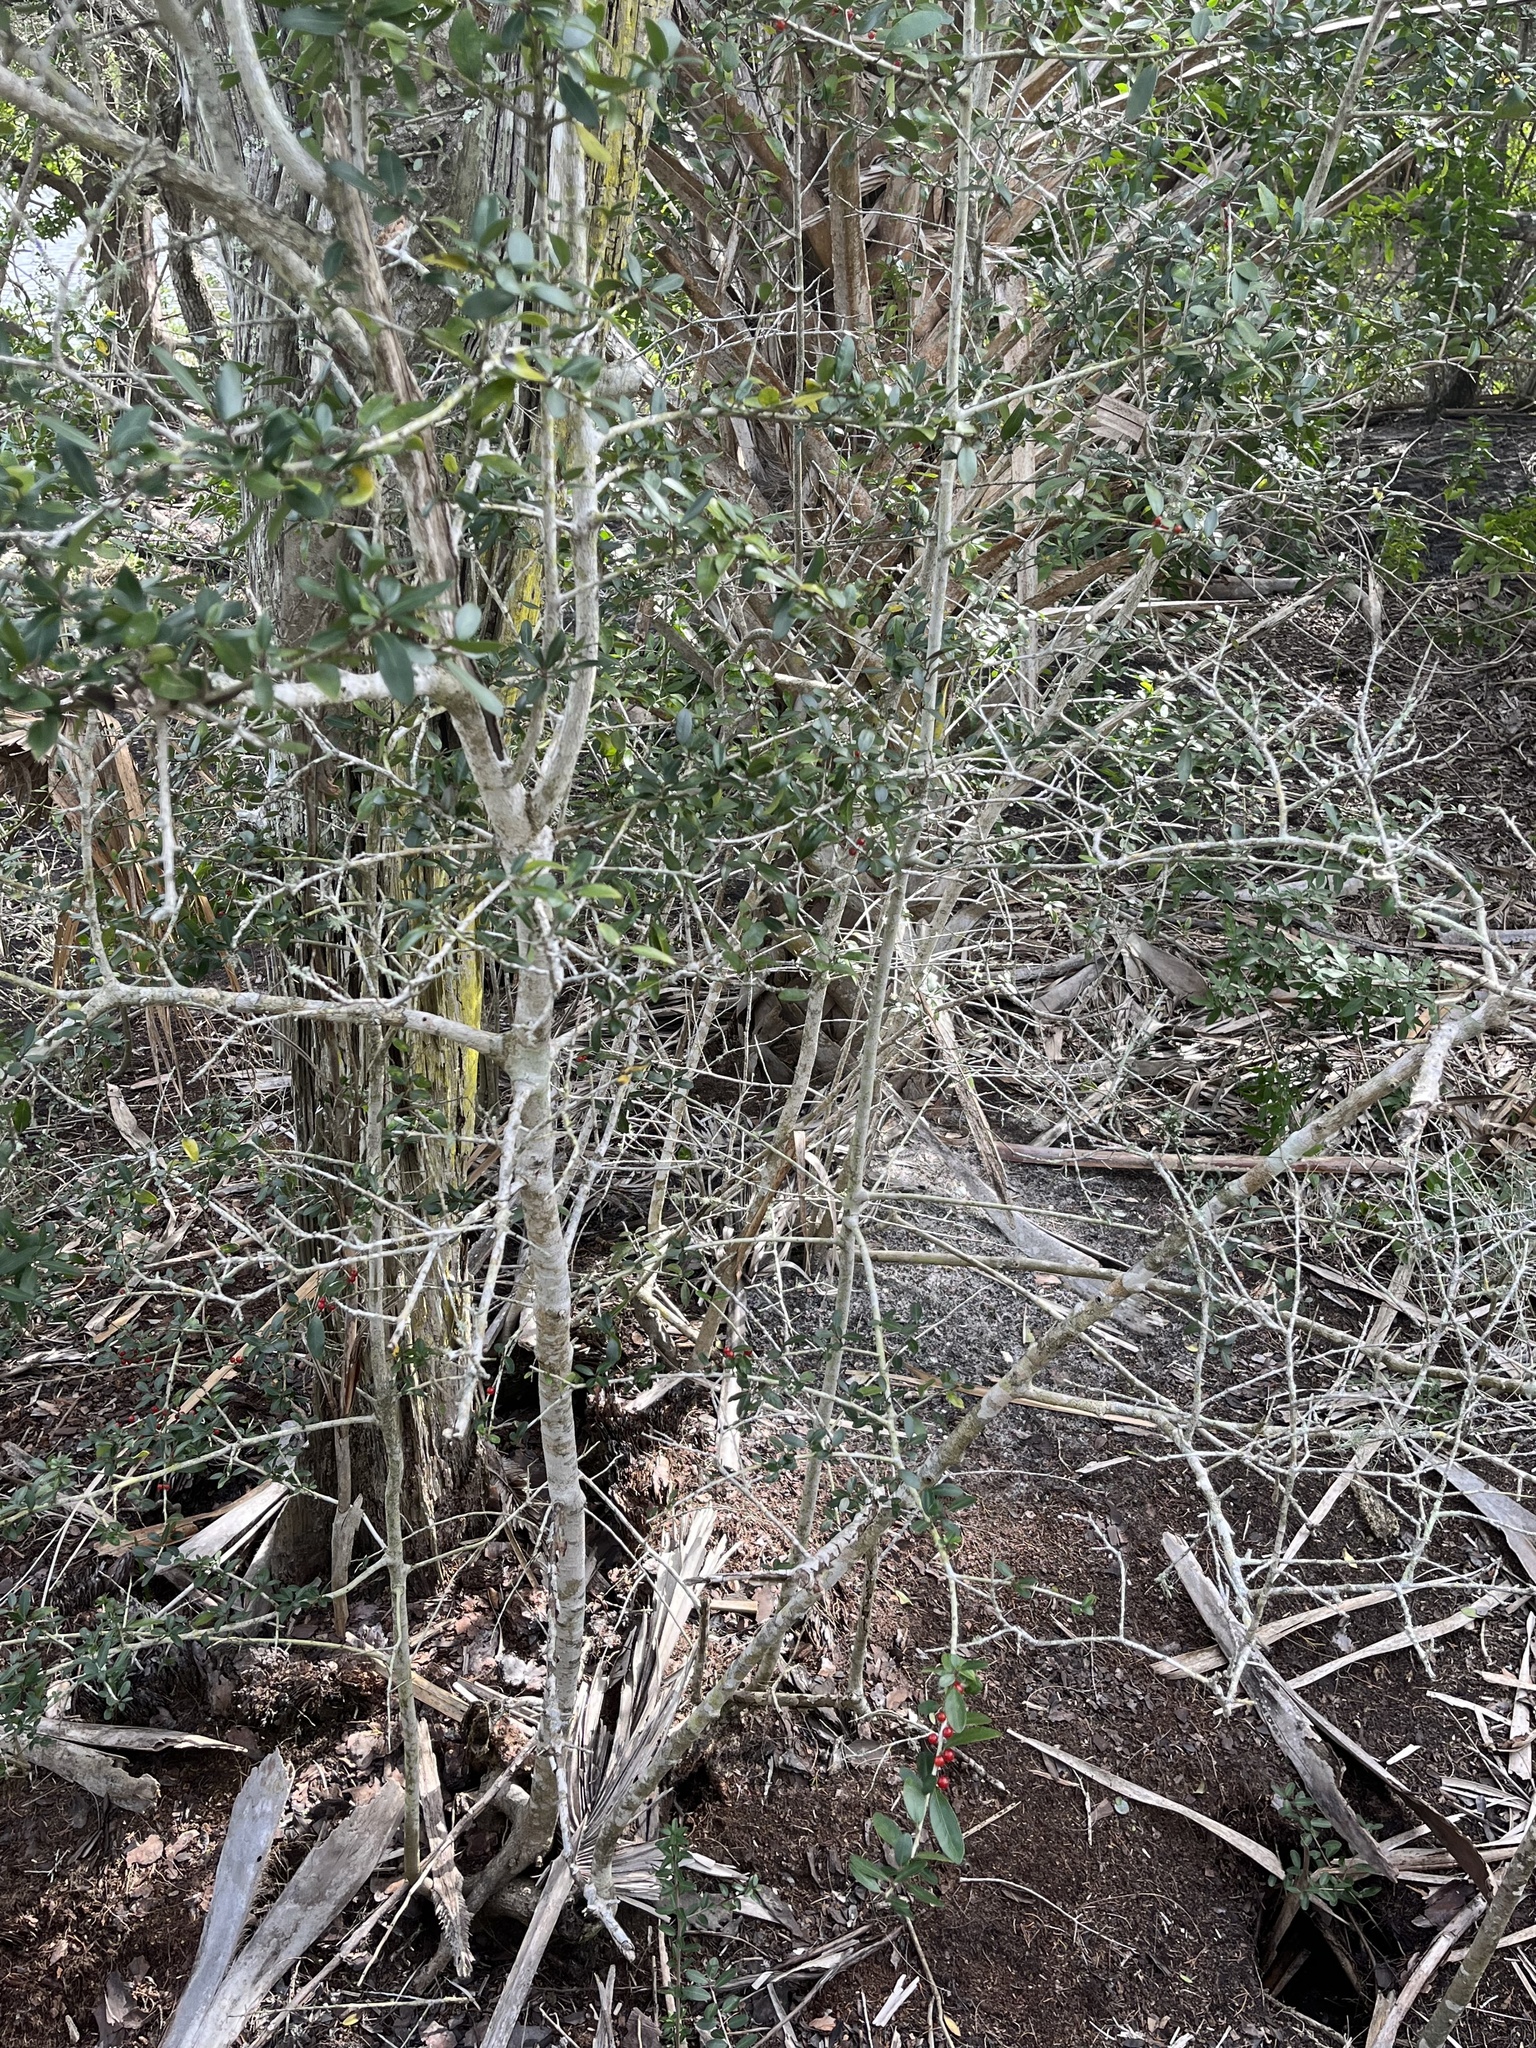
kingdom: Plantae
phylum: Tracheophyta
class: Magnoliopsida
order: Aquifoliales
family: Aquifoliaceae
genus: Ilex
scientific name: Ilex vomitoria
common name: Yaupon holly
